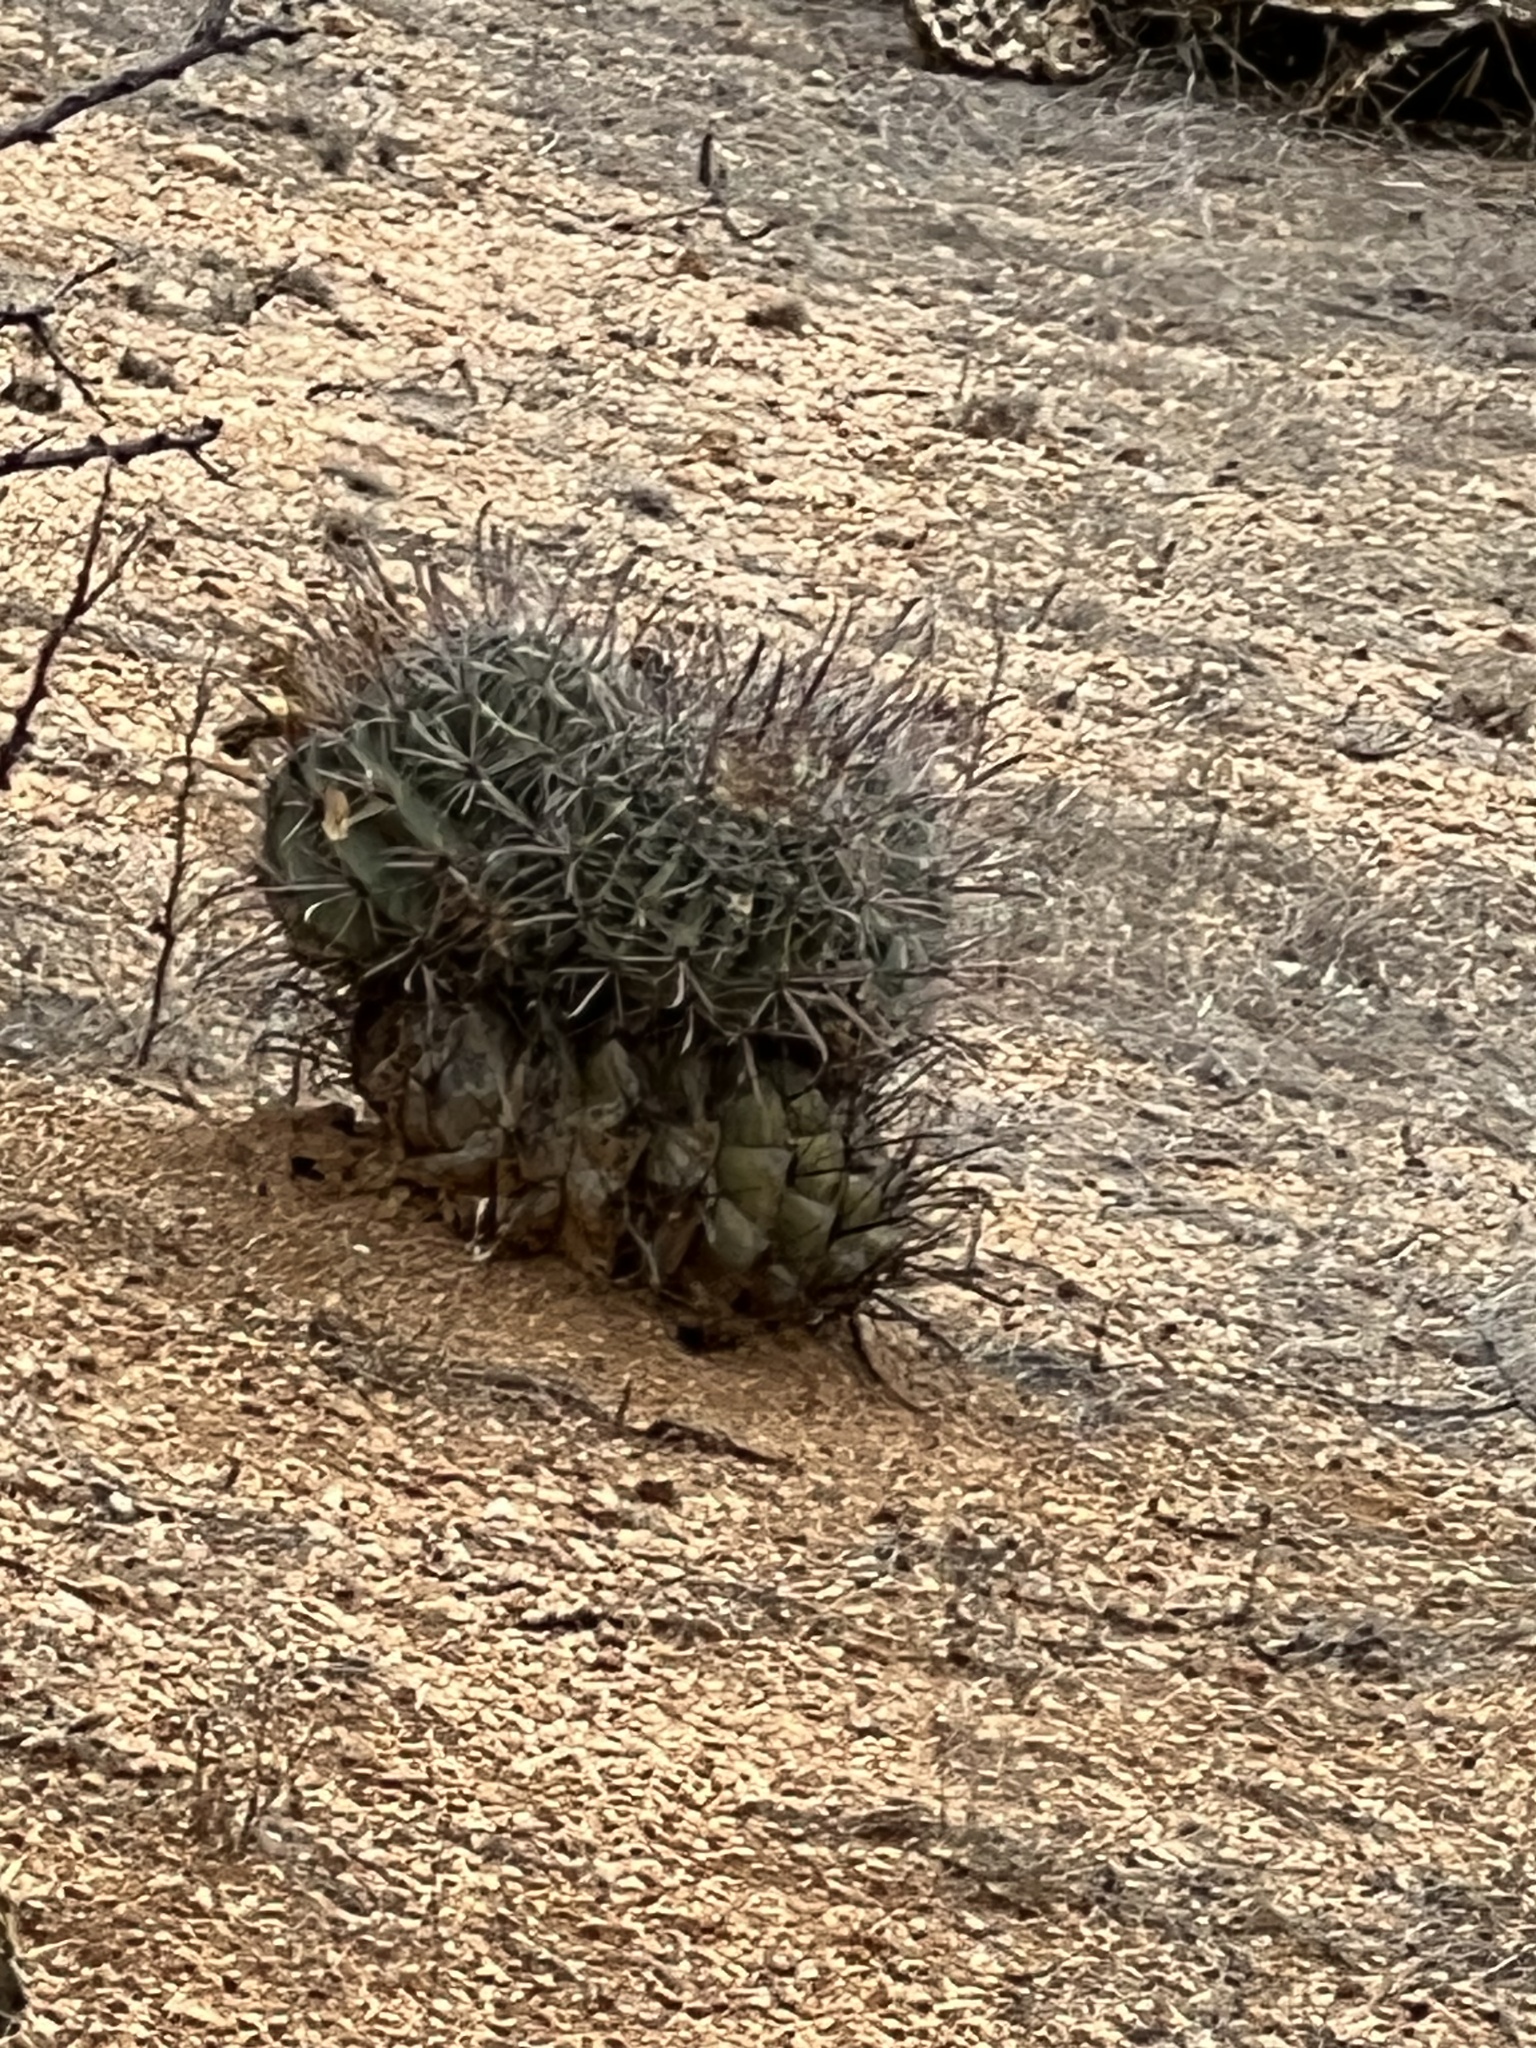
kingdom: Plantae
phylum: Tracheophyta
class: Magnoliopsida
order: Caryophyllales
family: Cactaceae
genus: Ferocactus
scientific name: Ferocactus wislizeni
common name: Candy barrel cactus
